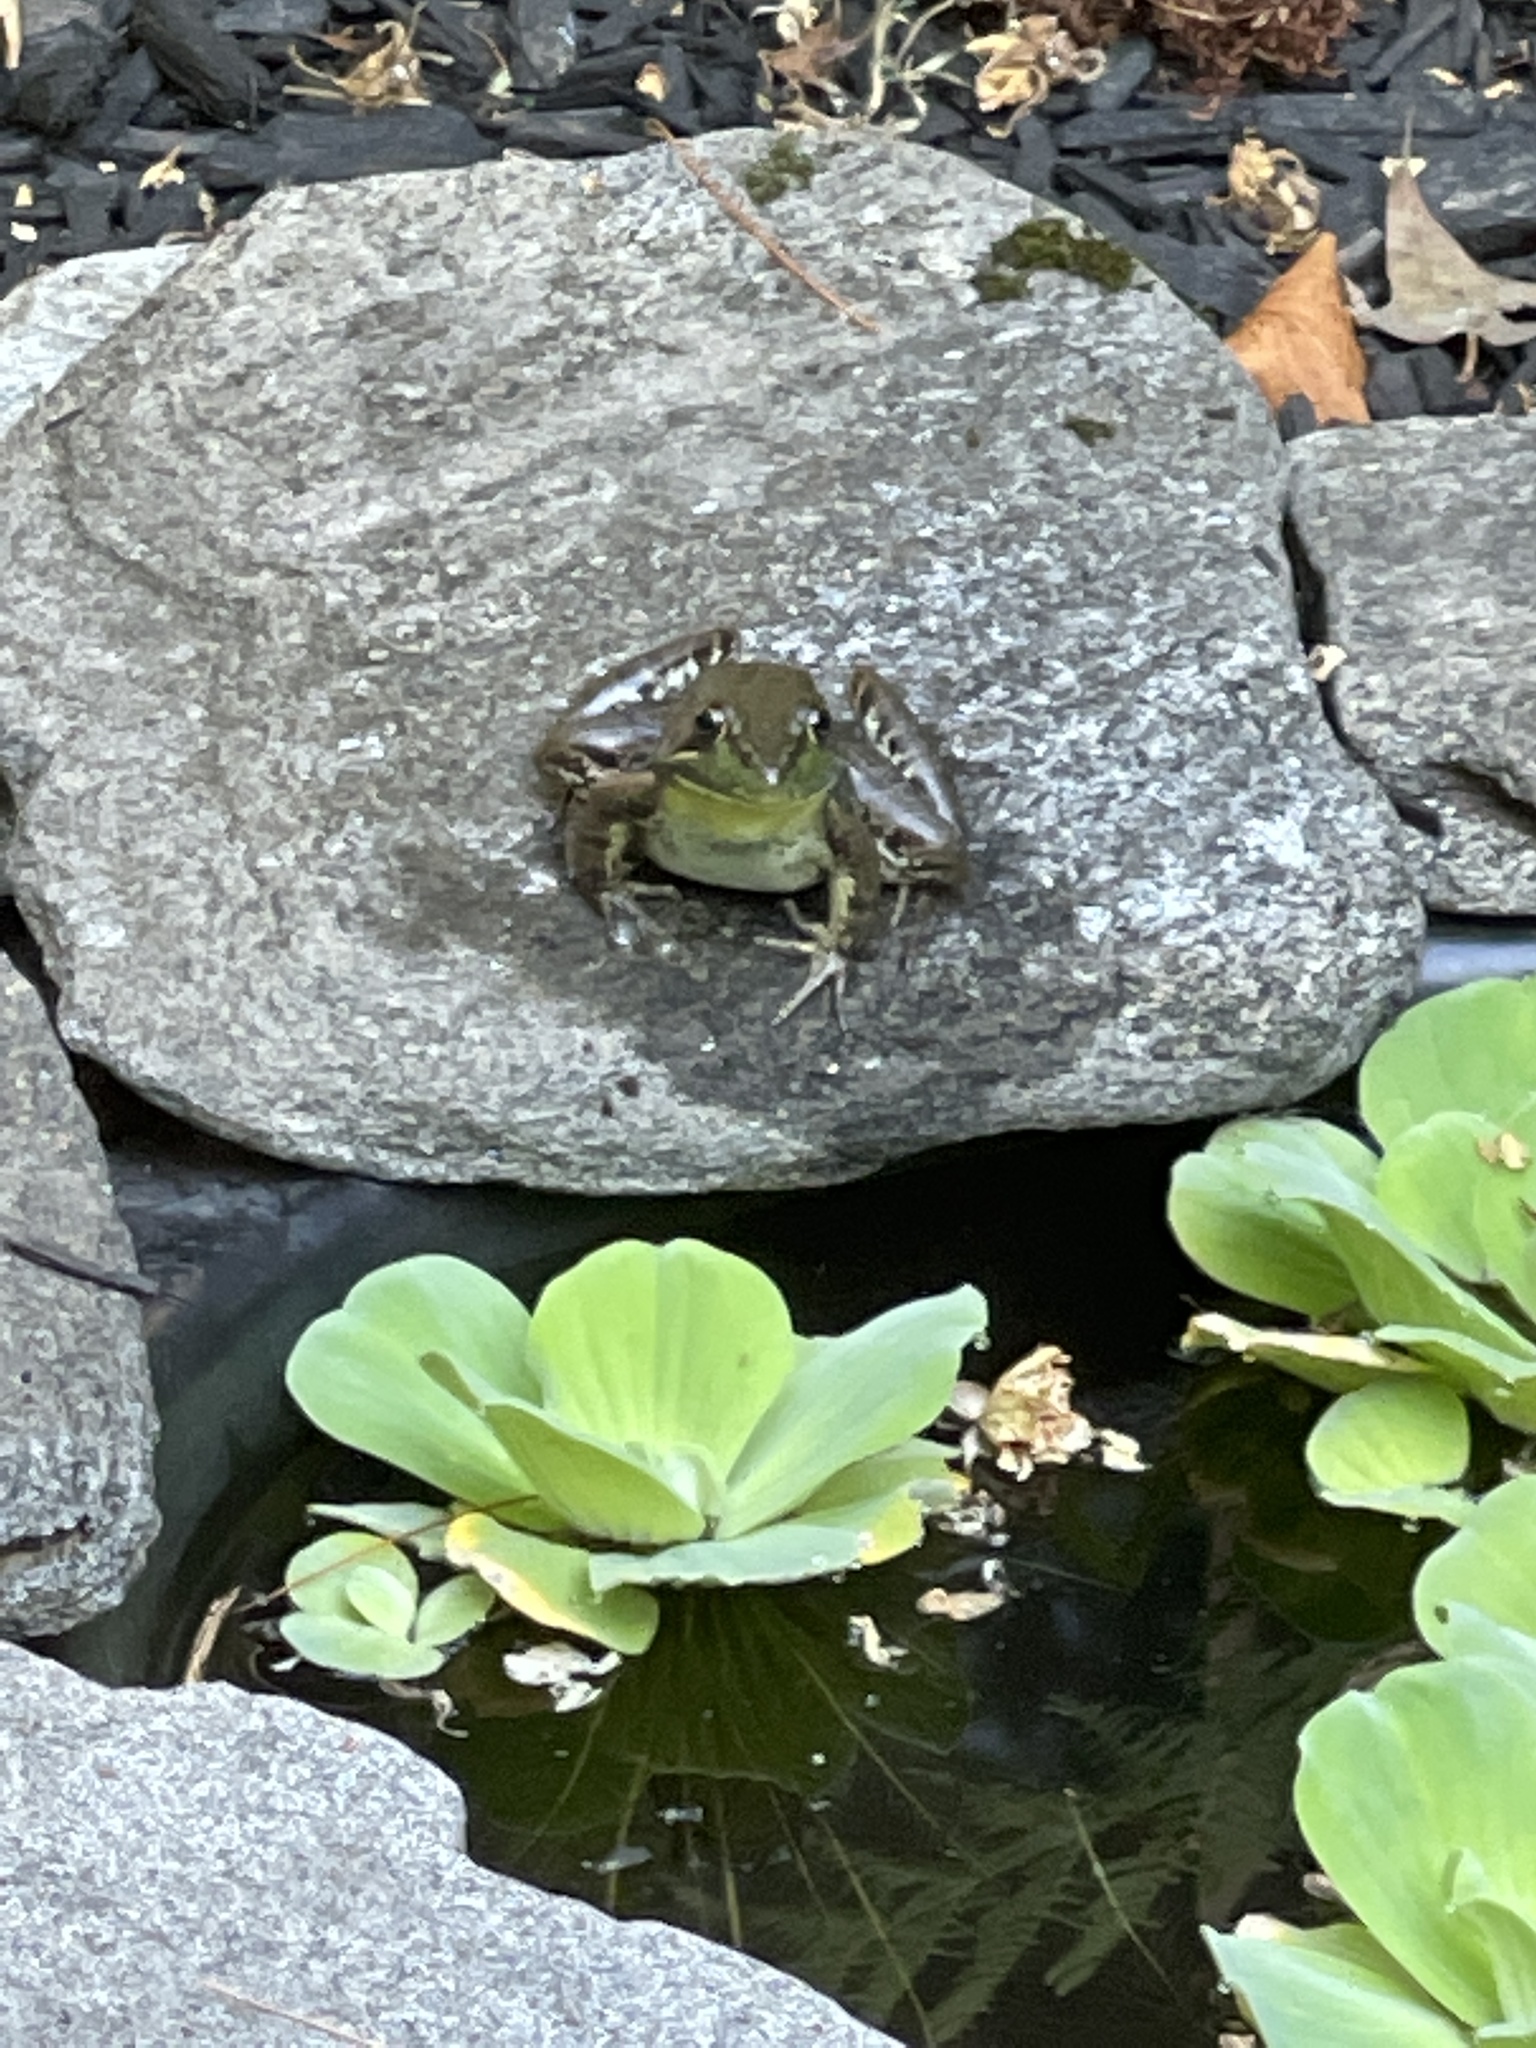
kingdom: Animalia
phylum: Chordata
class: Amphibia
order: Anura
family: Ranidae
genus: Lithobates
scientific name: Lithobates
